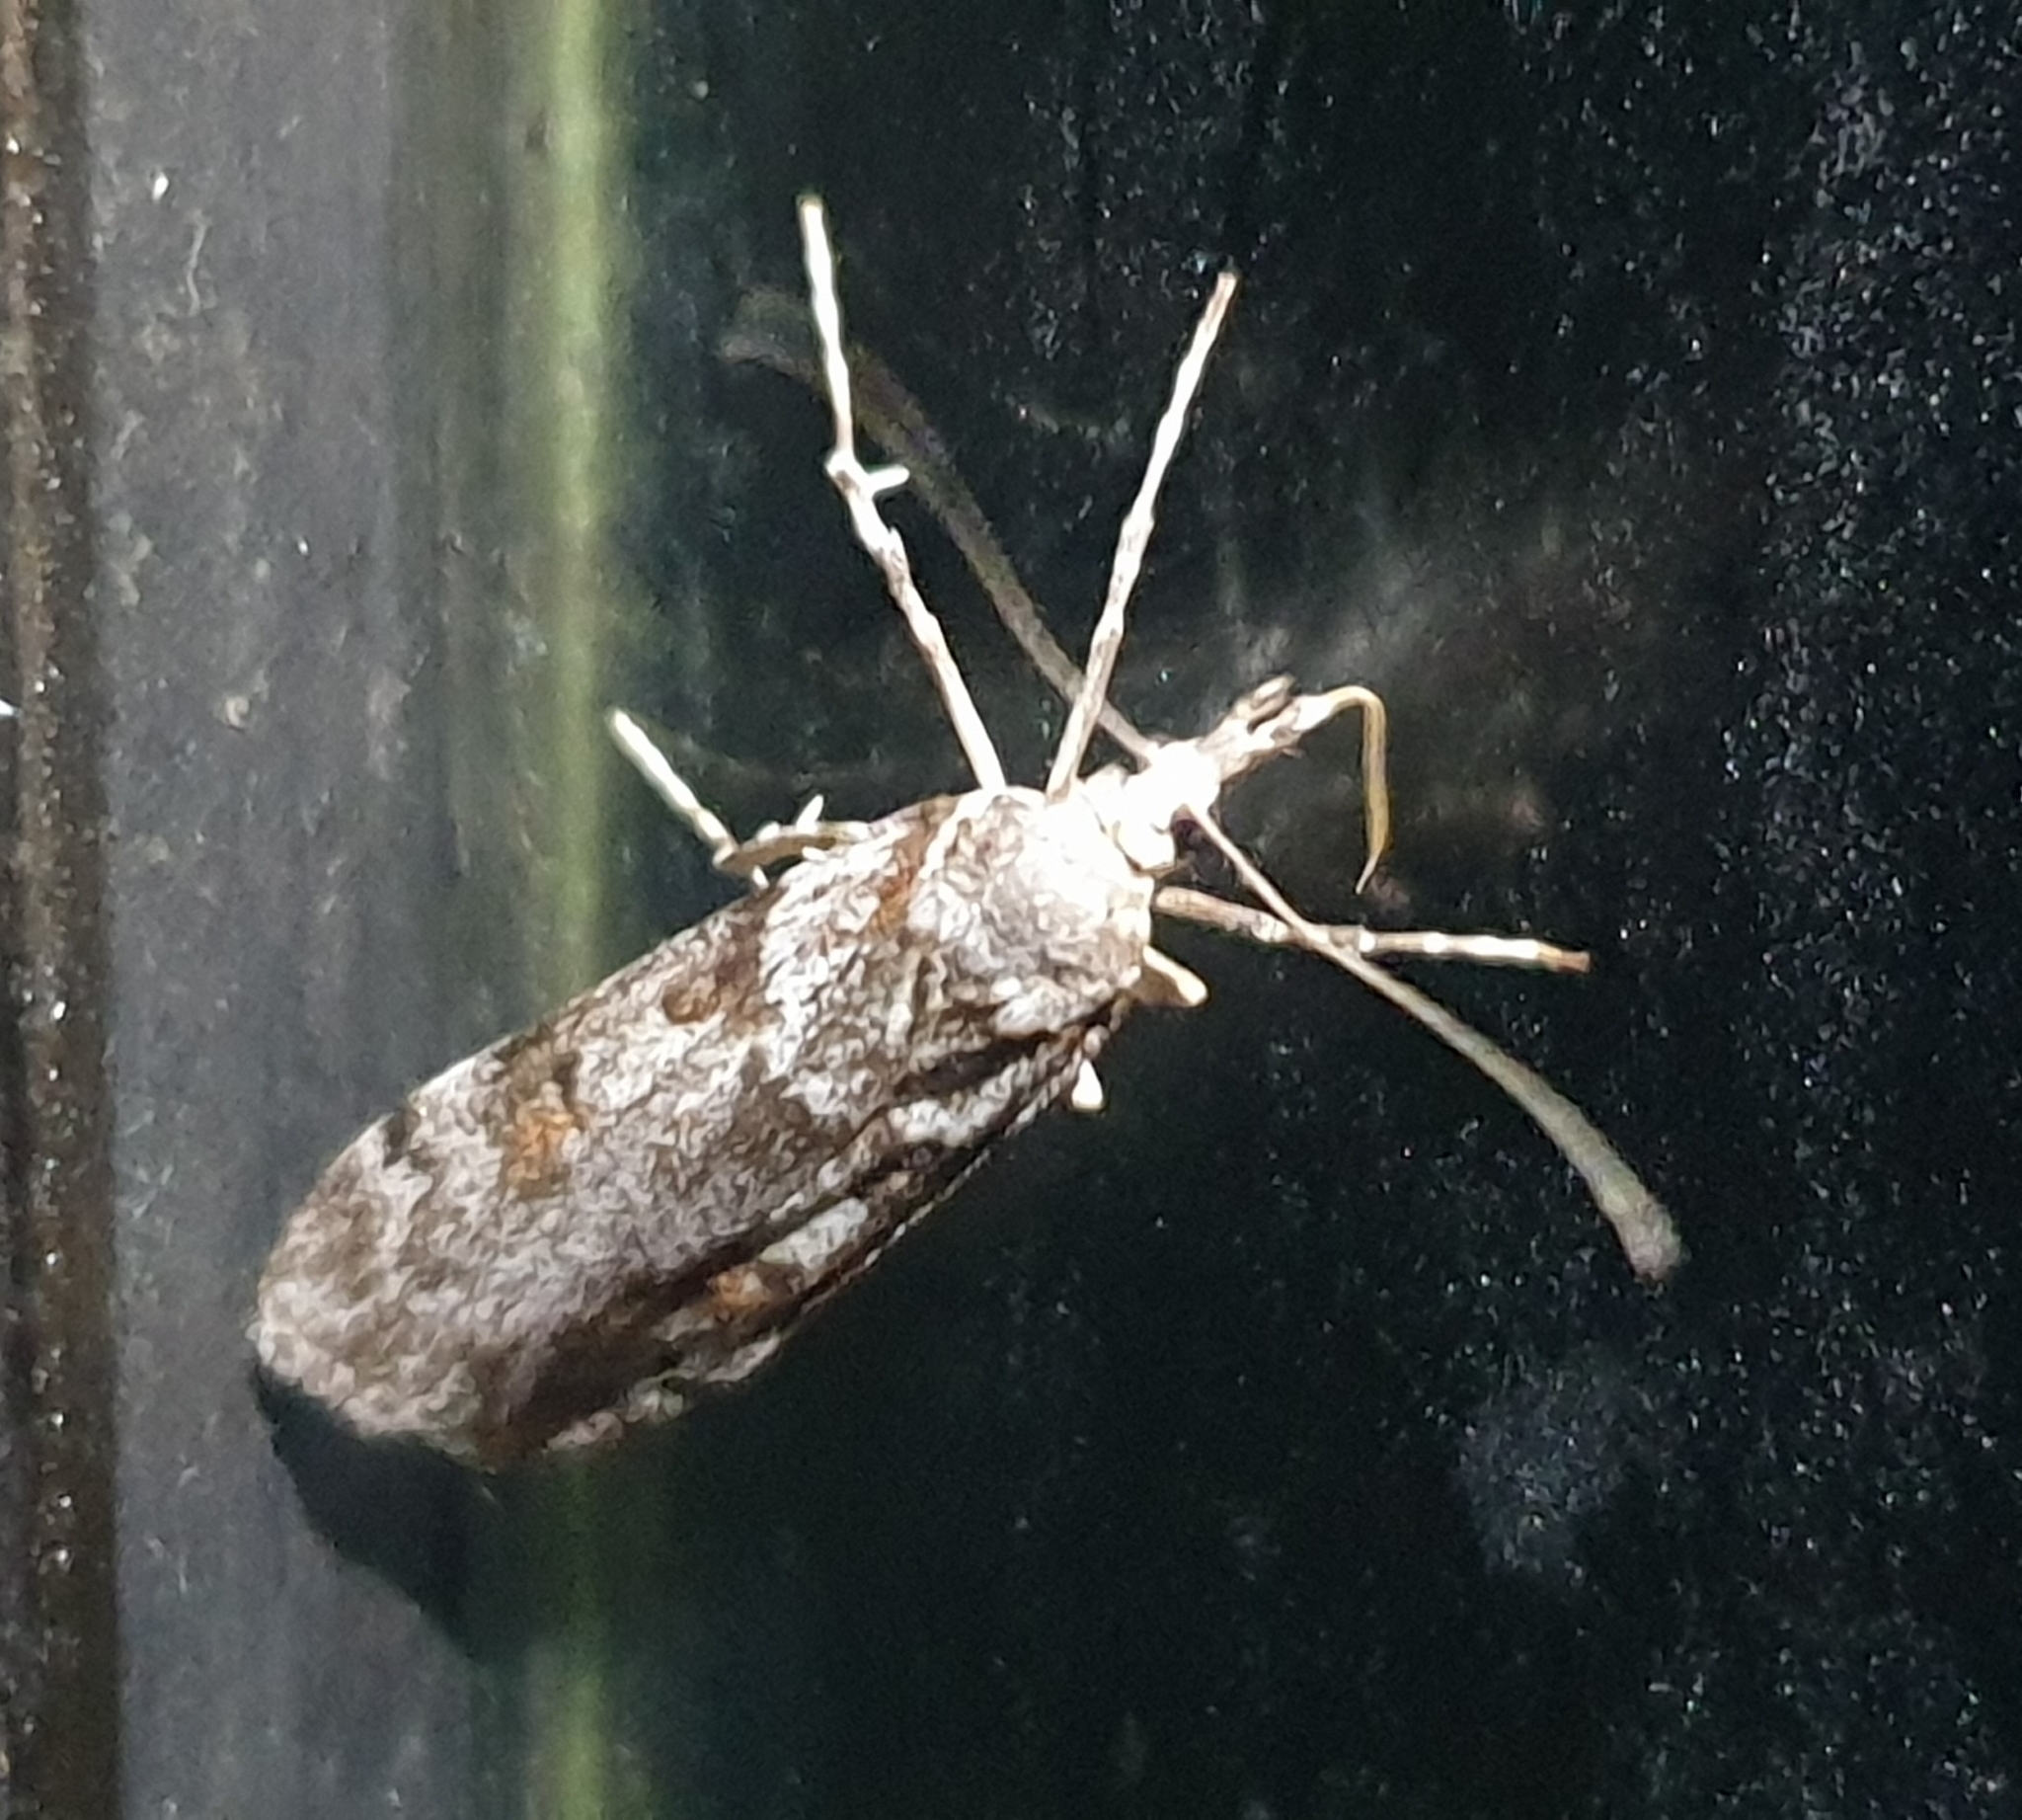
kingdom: Animalia
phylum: Arthropoda
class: Insecta
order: Lepidoptera
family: Crambidae
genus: Scoparia
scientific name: Scoparia petrina
